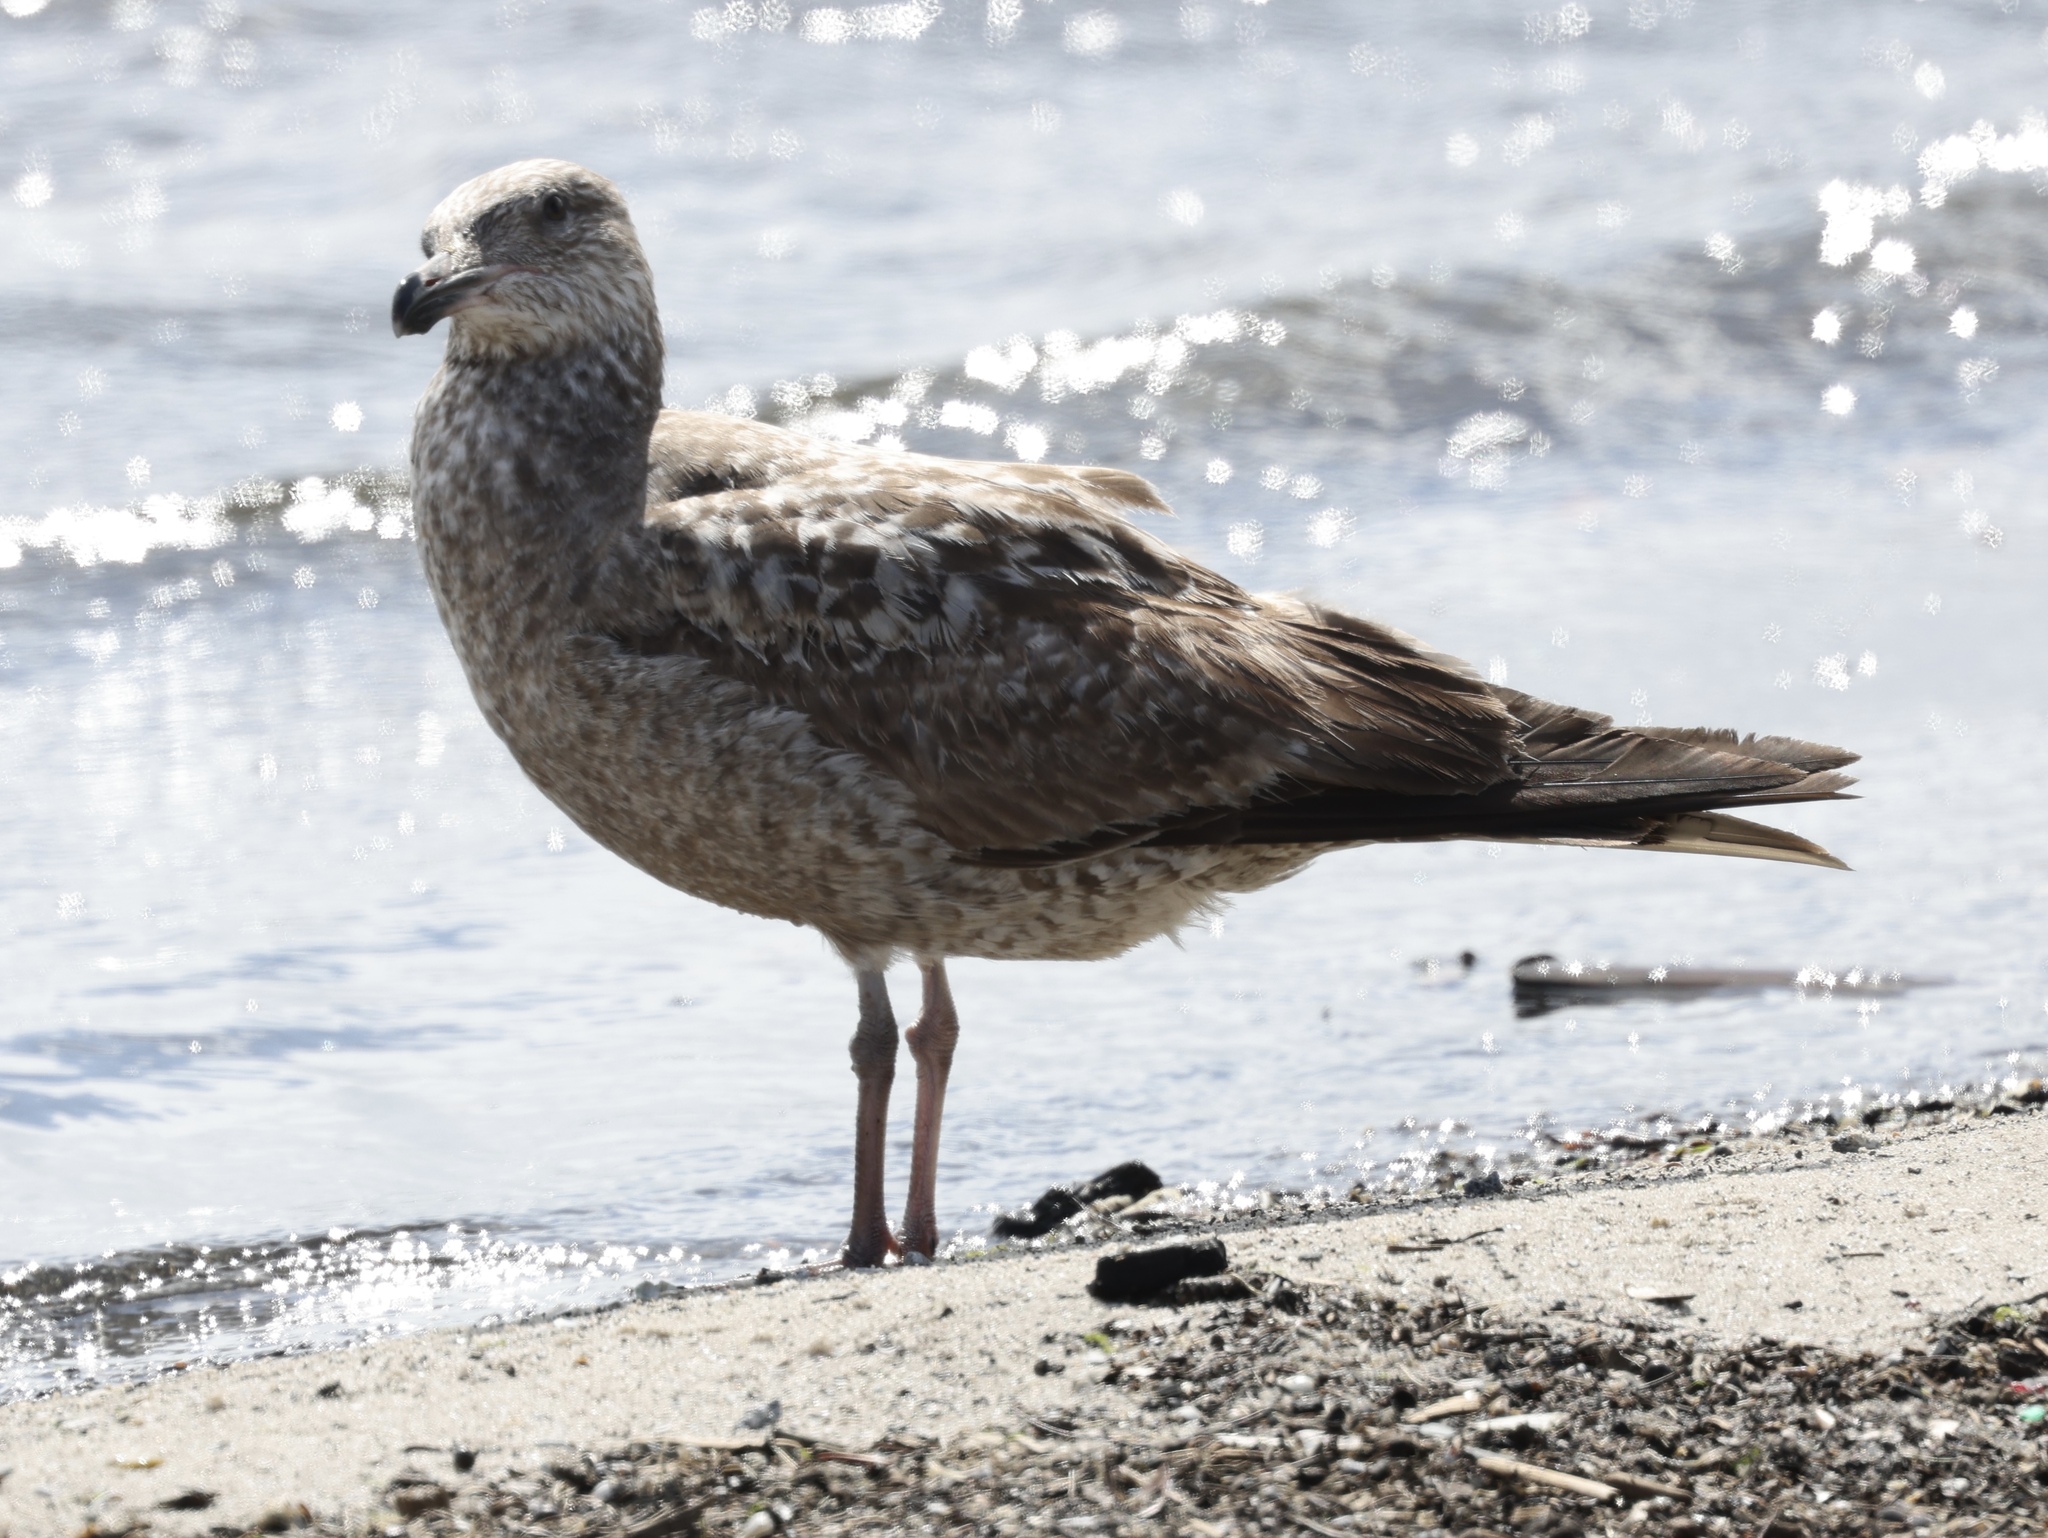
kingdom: Animalia
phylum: Chordata
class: Aves
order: Charadriiformes
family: Laridae
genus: Larus
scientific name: Larus argentatus
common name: Herring gull
